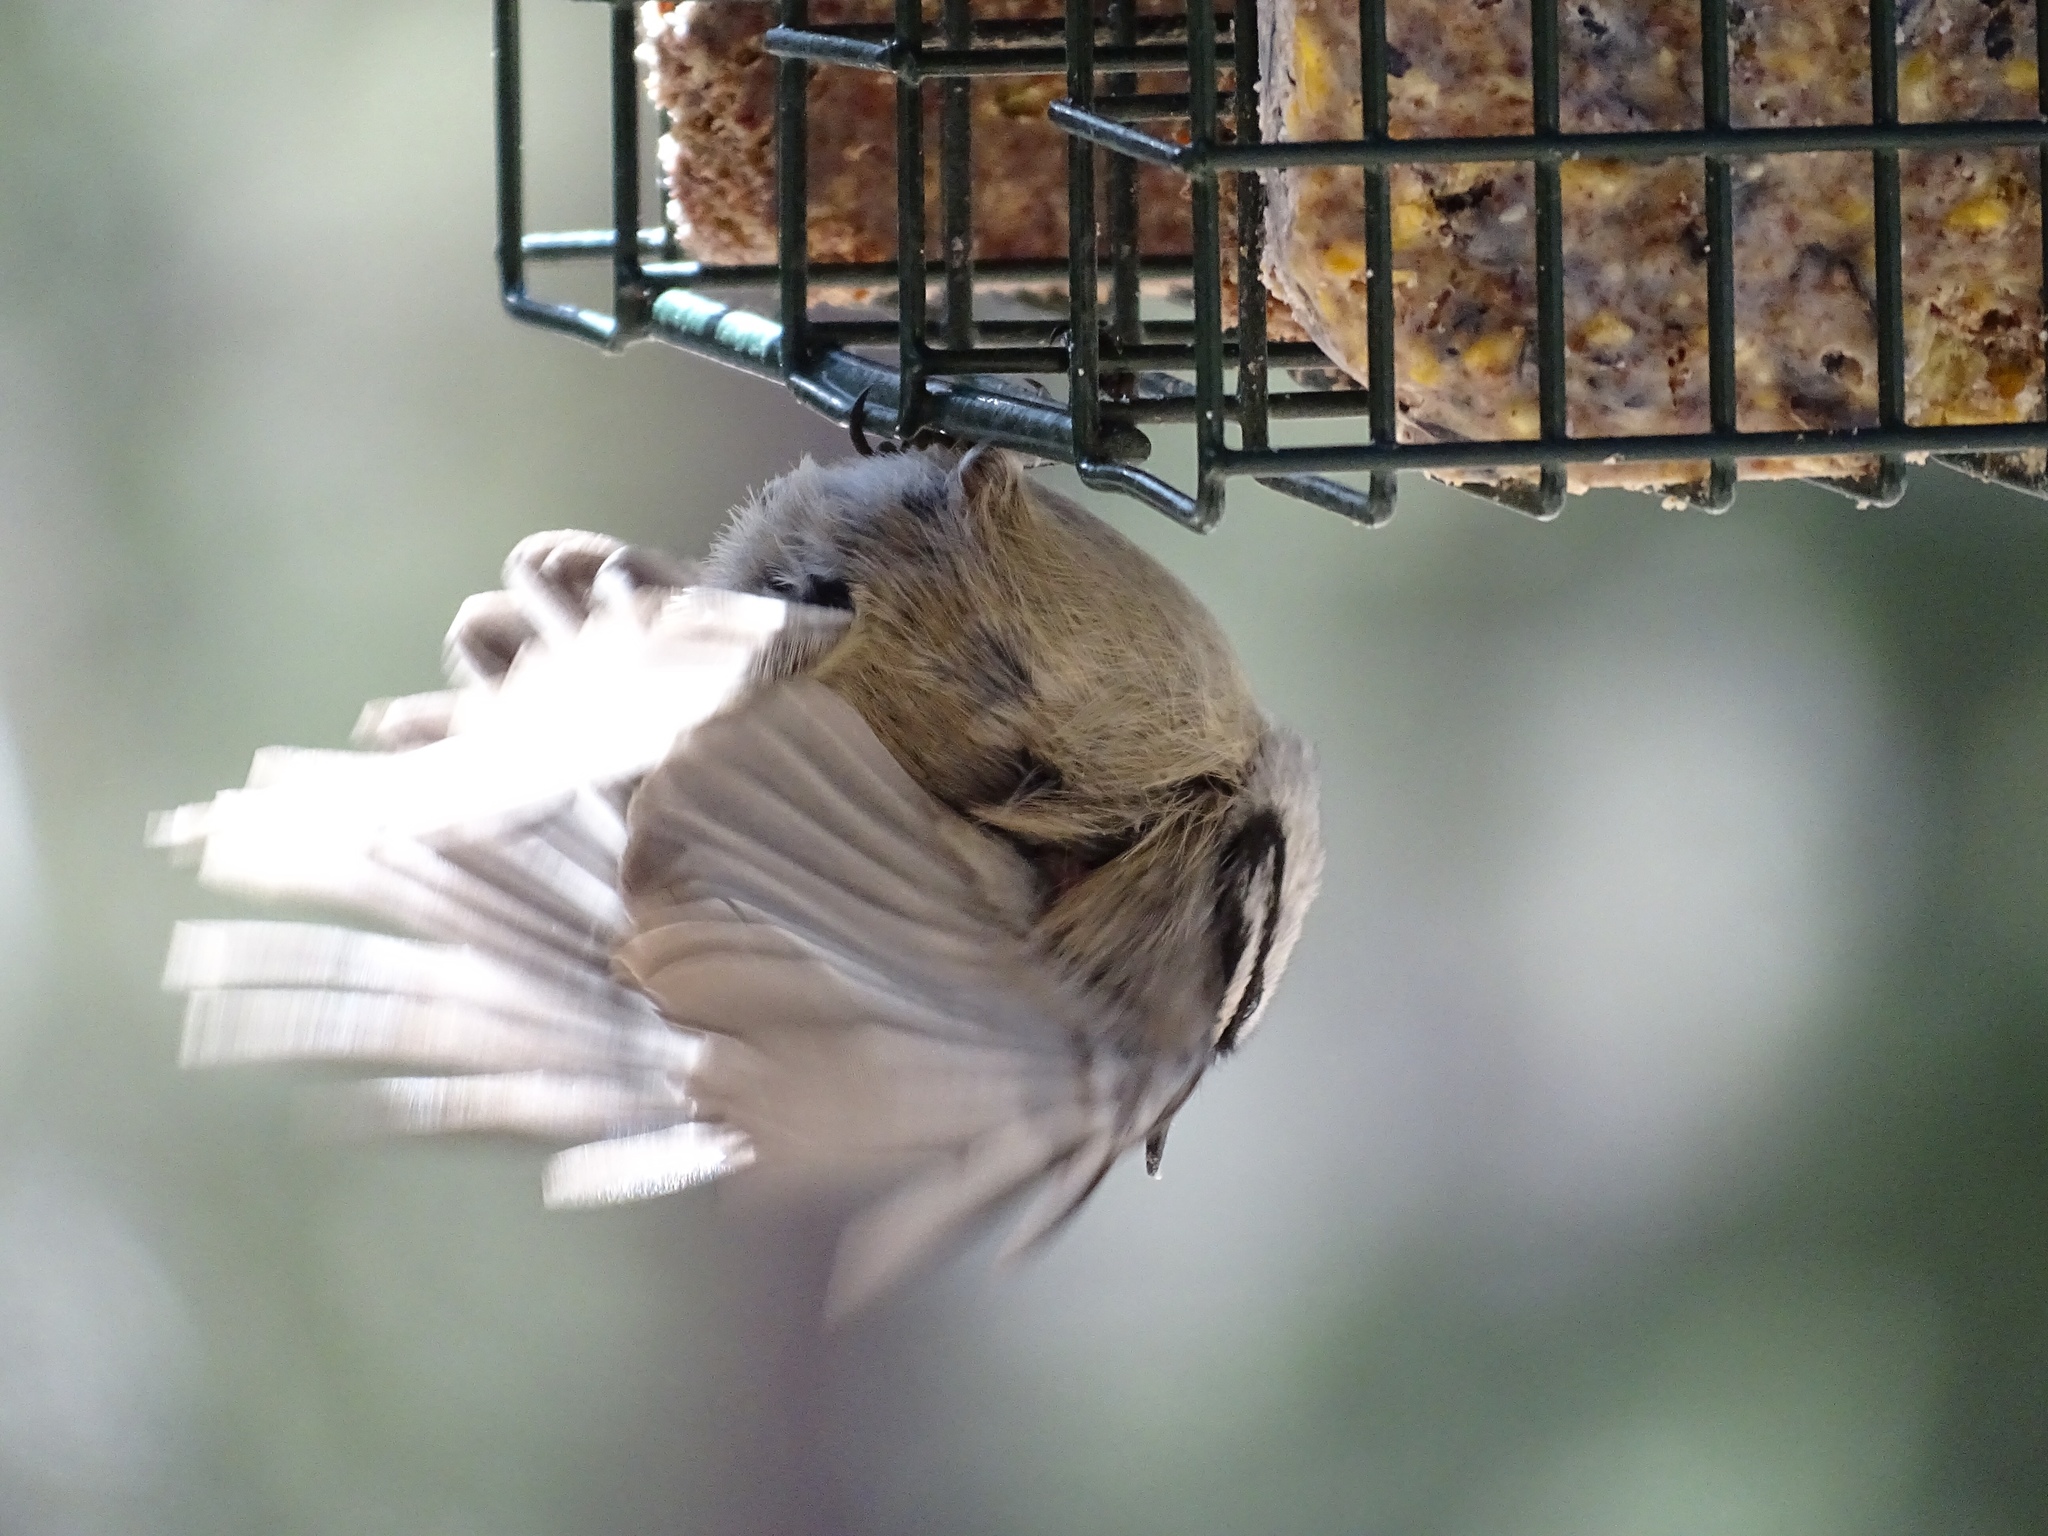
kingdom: Animalia
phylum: Chordata
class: Aves
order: Passeriformes
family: Paridae
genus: Poecile
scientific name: Poecile gambeli
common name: Mountain chickadee
